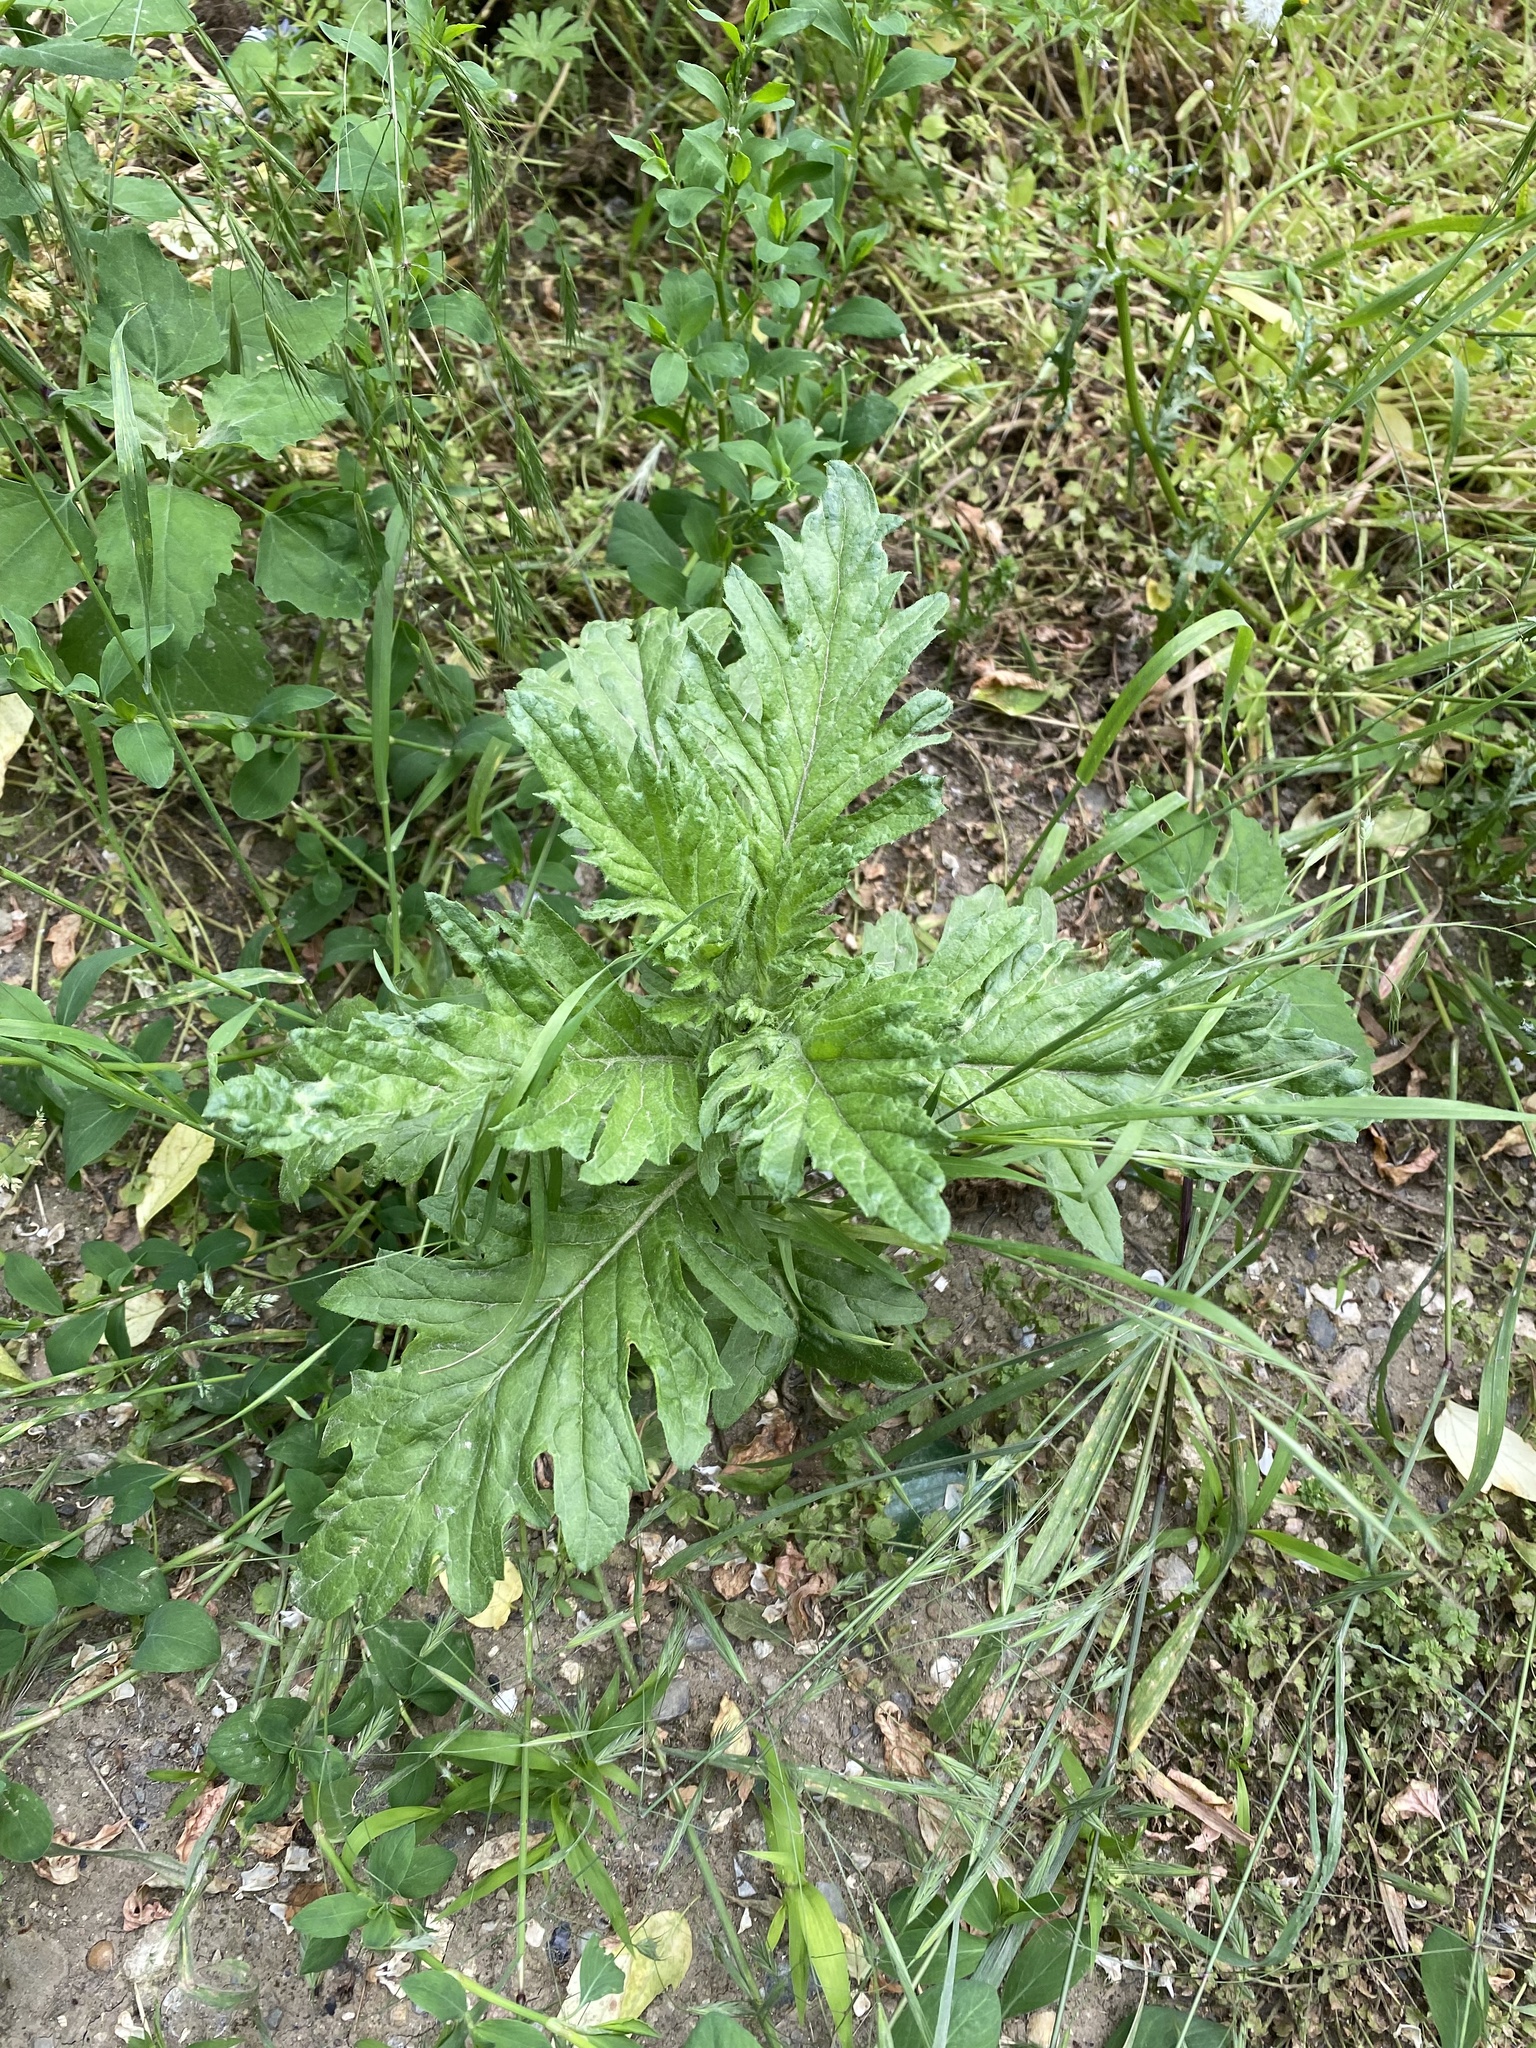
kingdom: Plantae
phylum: Tracheophyta
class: Magnoliopsida
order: Asterales
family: Asteraceae
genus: Jacobaea
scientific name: Jacobaea erucifolia
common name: Hoary ragwort
